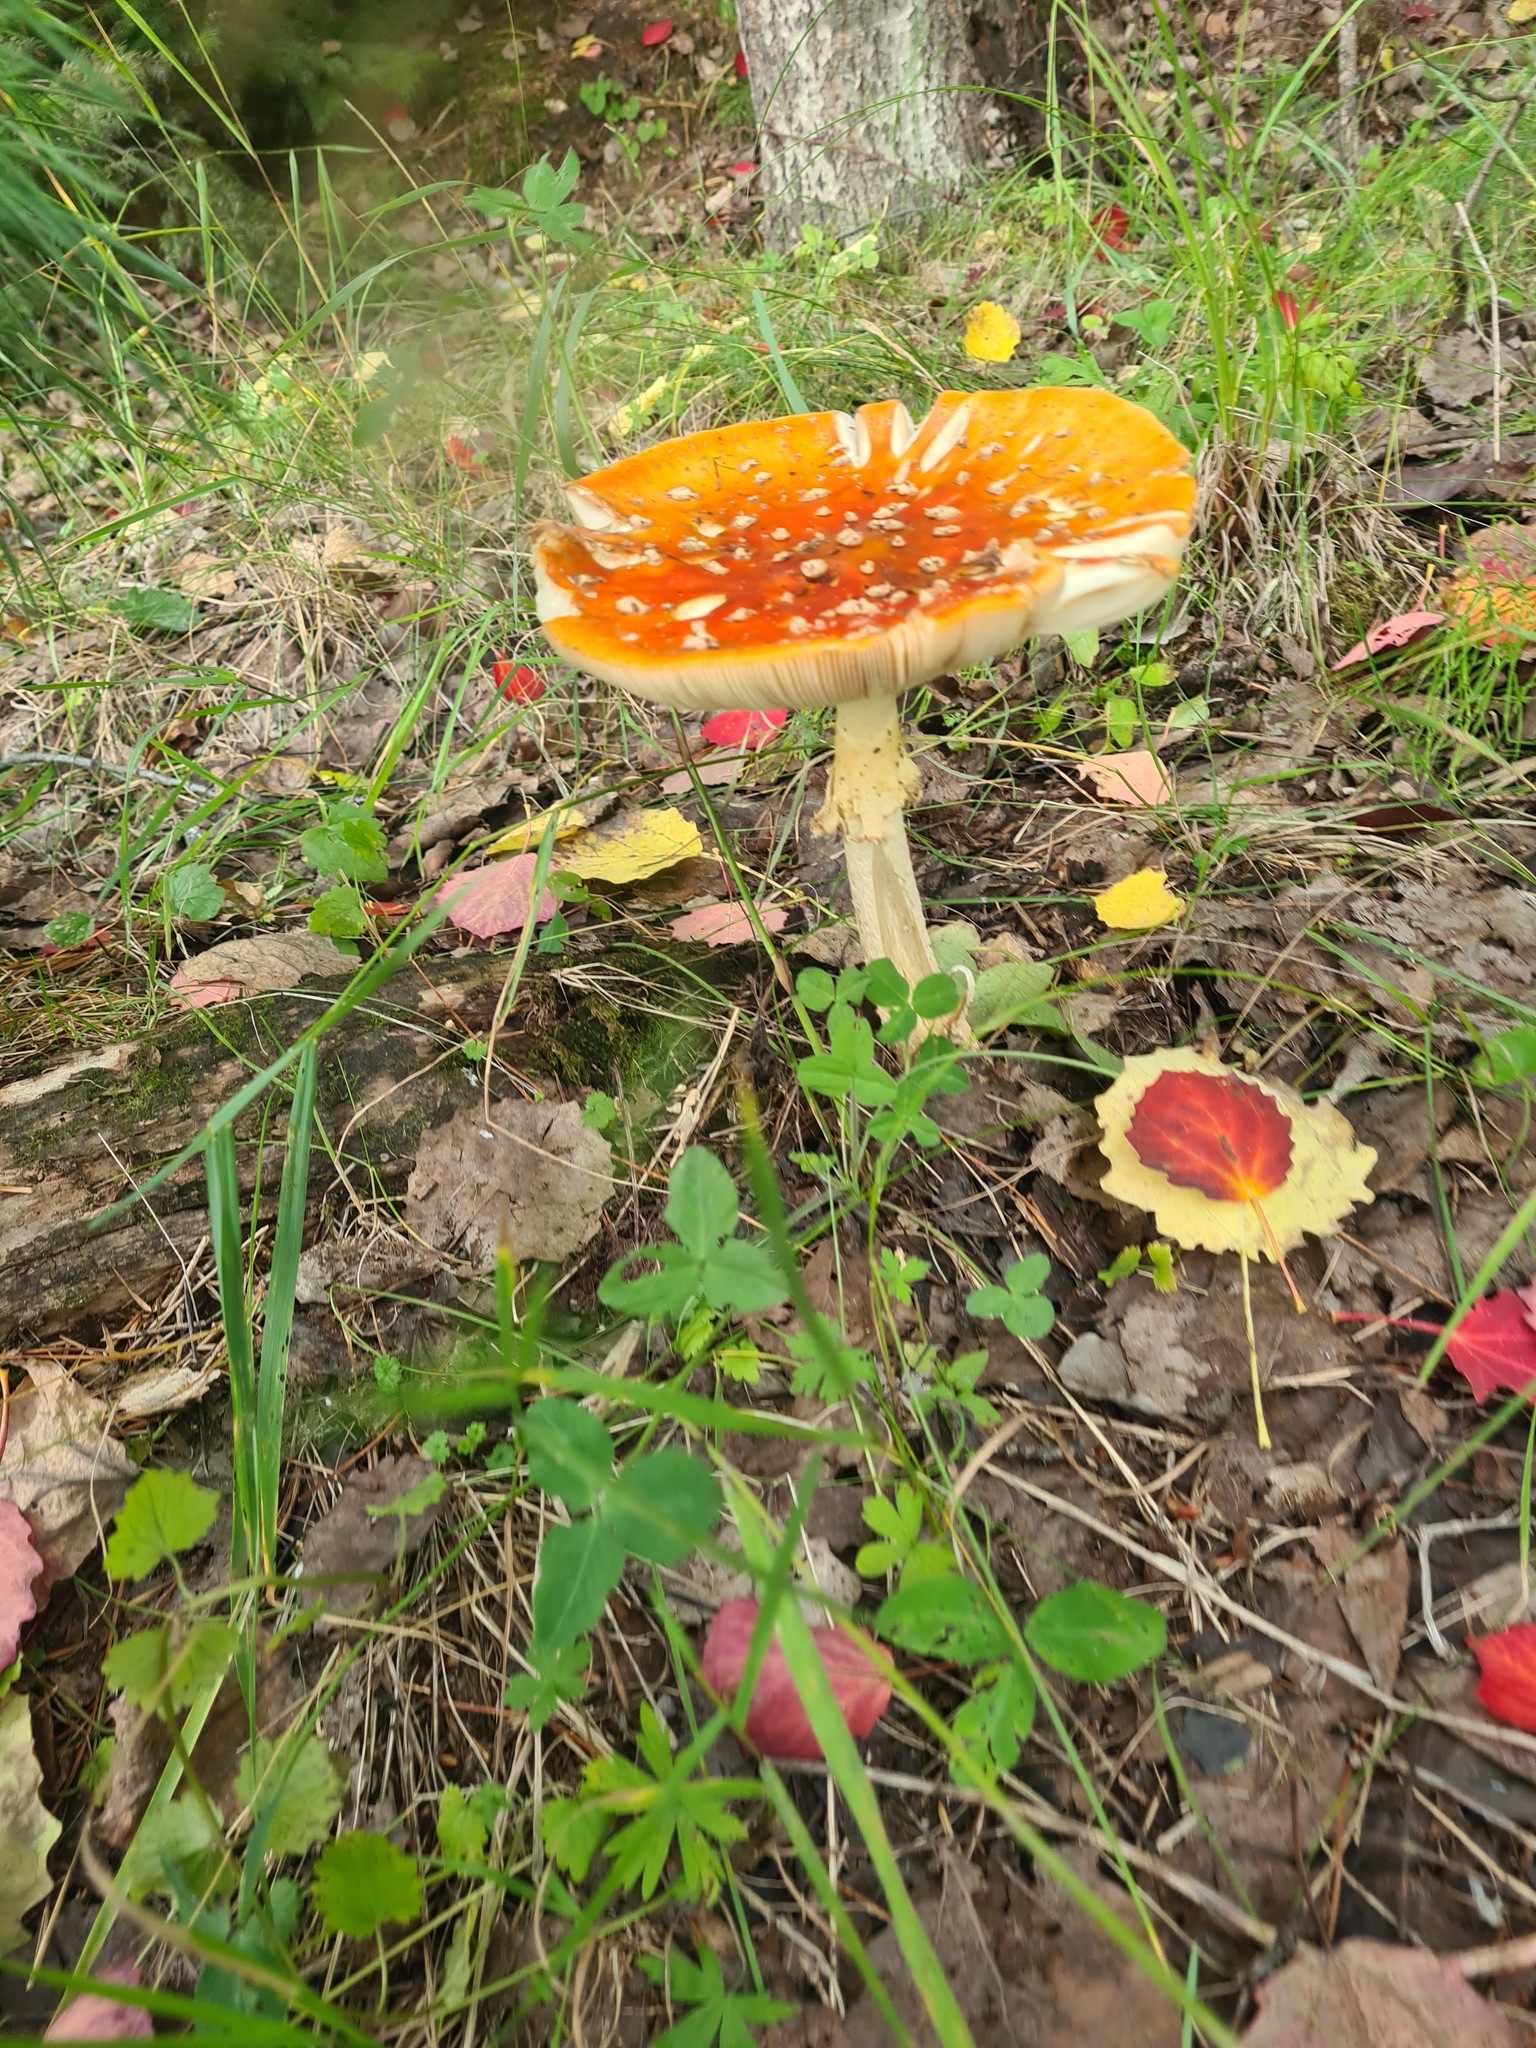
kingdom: Fungi
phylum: Basidiomycota
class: Agaricomycetes
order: Agaricales
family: Amanitaceae
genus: Amanita
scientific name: Amanita muscaria
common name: Fly agaric
